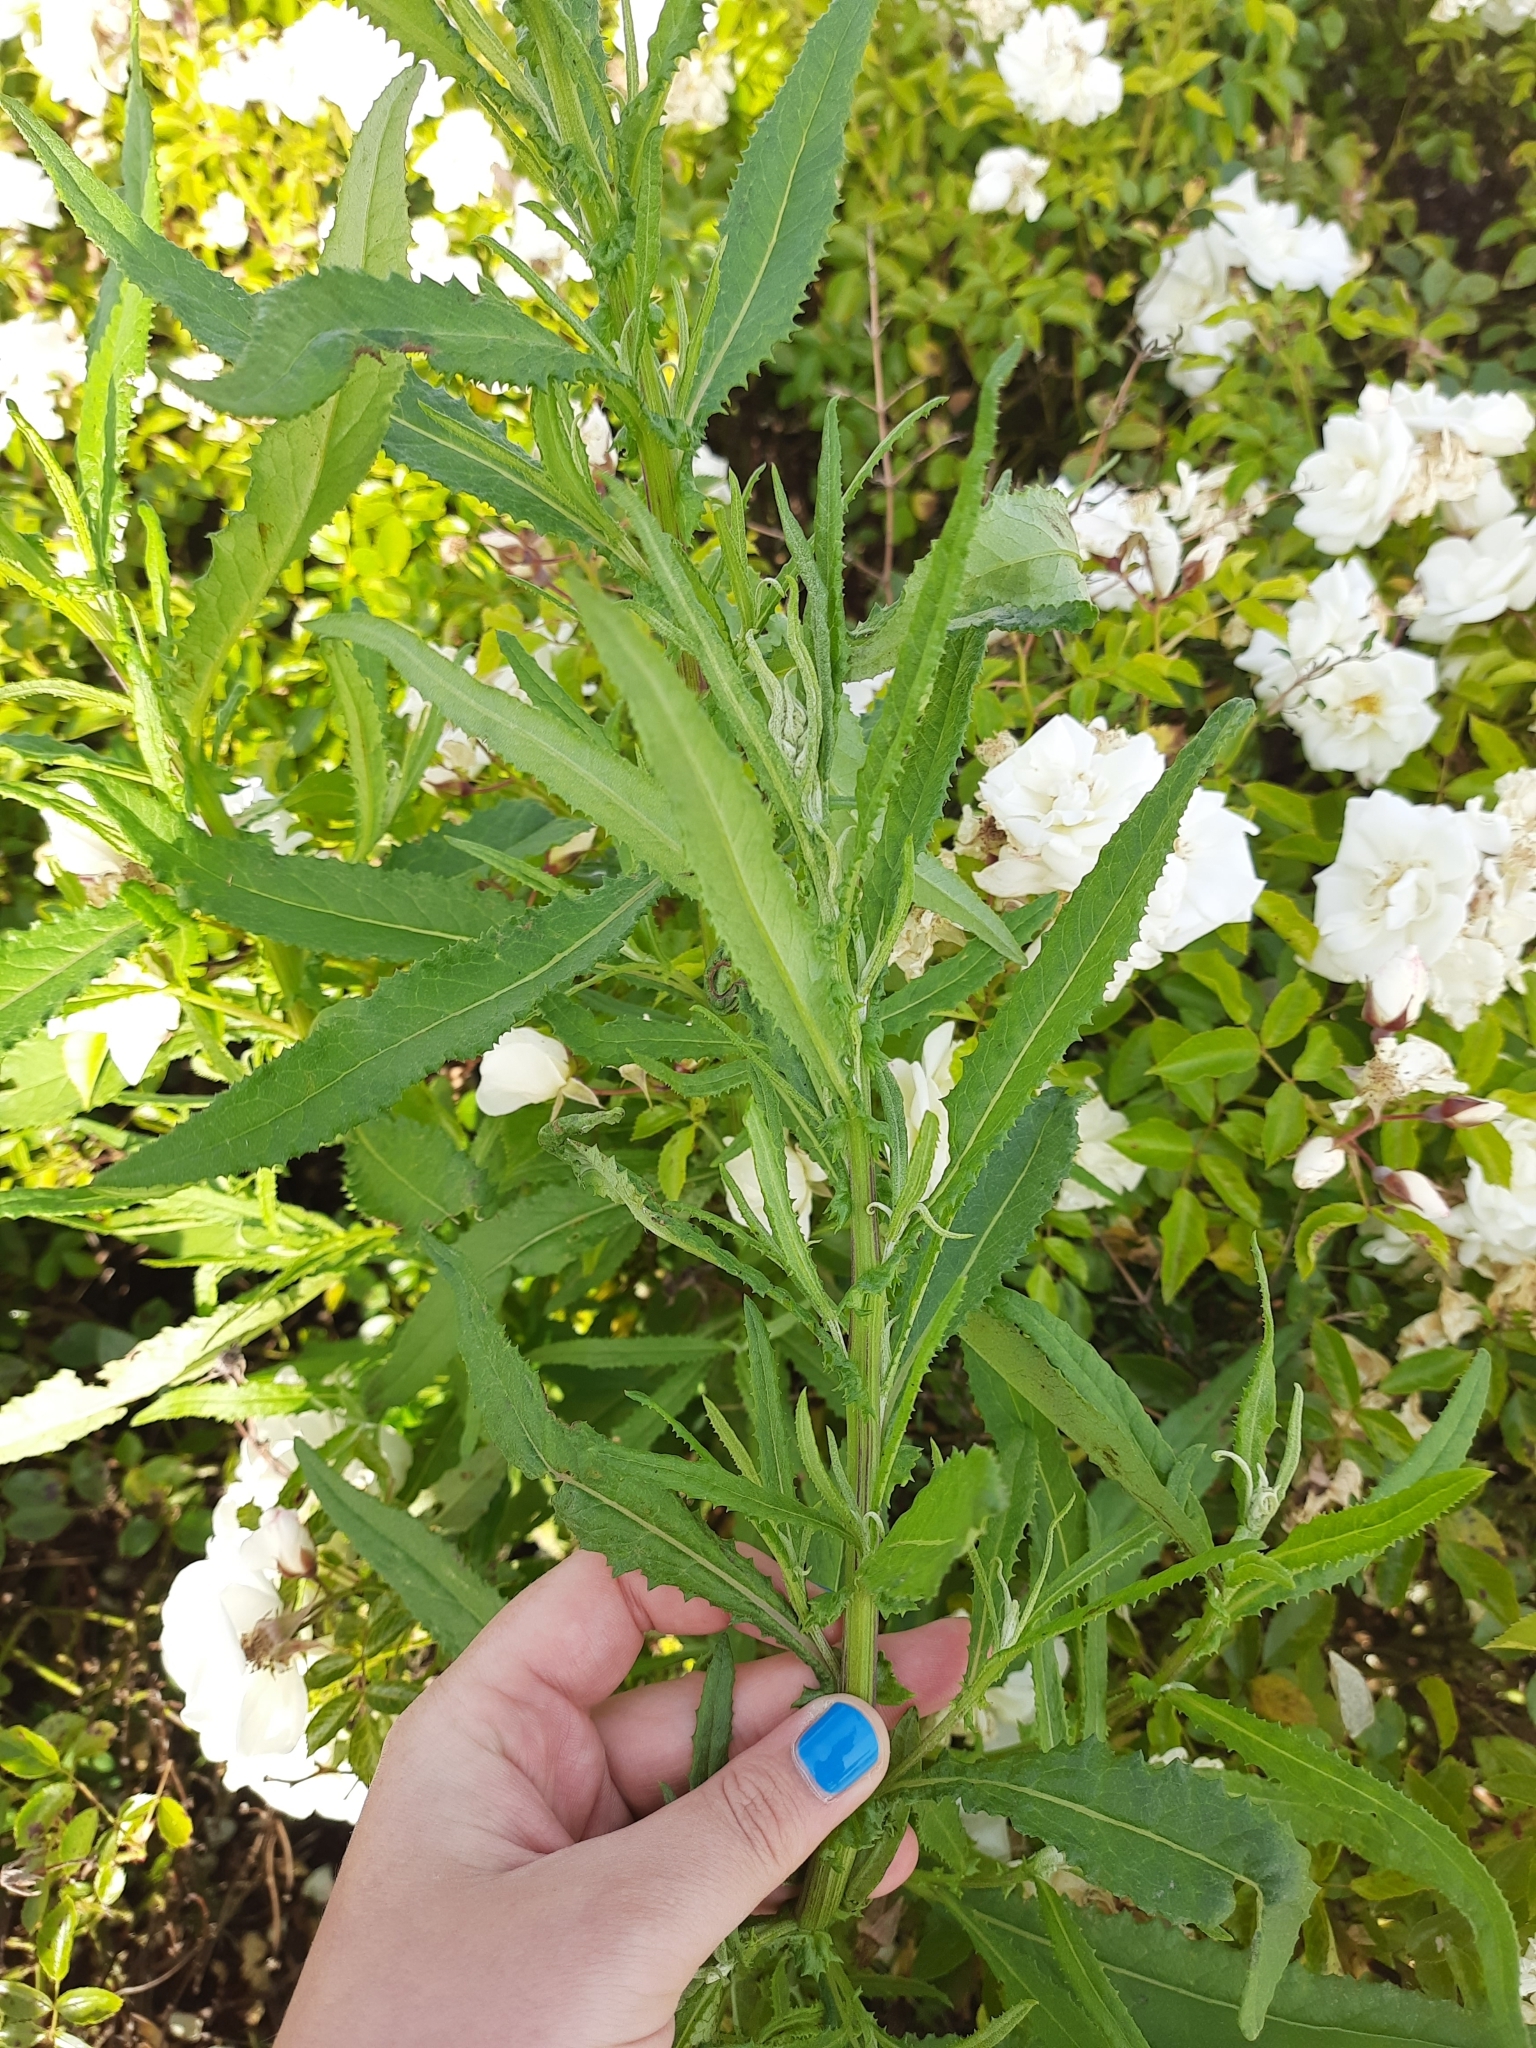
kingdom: Plantae
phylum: Tracheophyta
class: Magnoliopsida
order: Asterales
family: Asteraceae
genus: Senecio
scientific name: Senecio minimus
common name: Toothed fireweed
